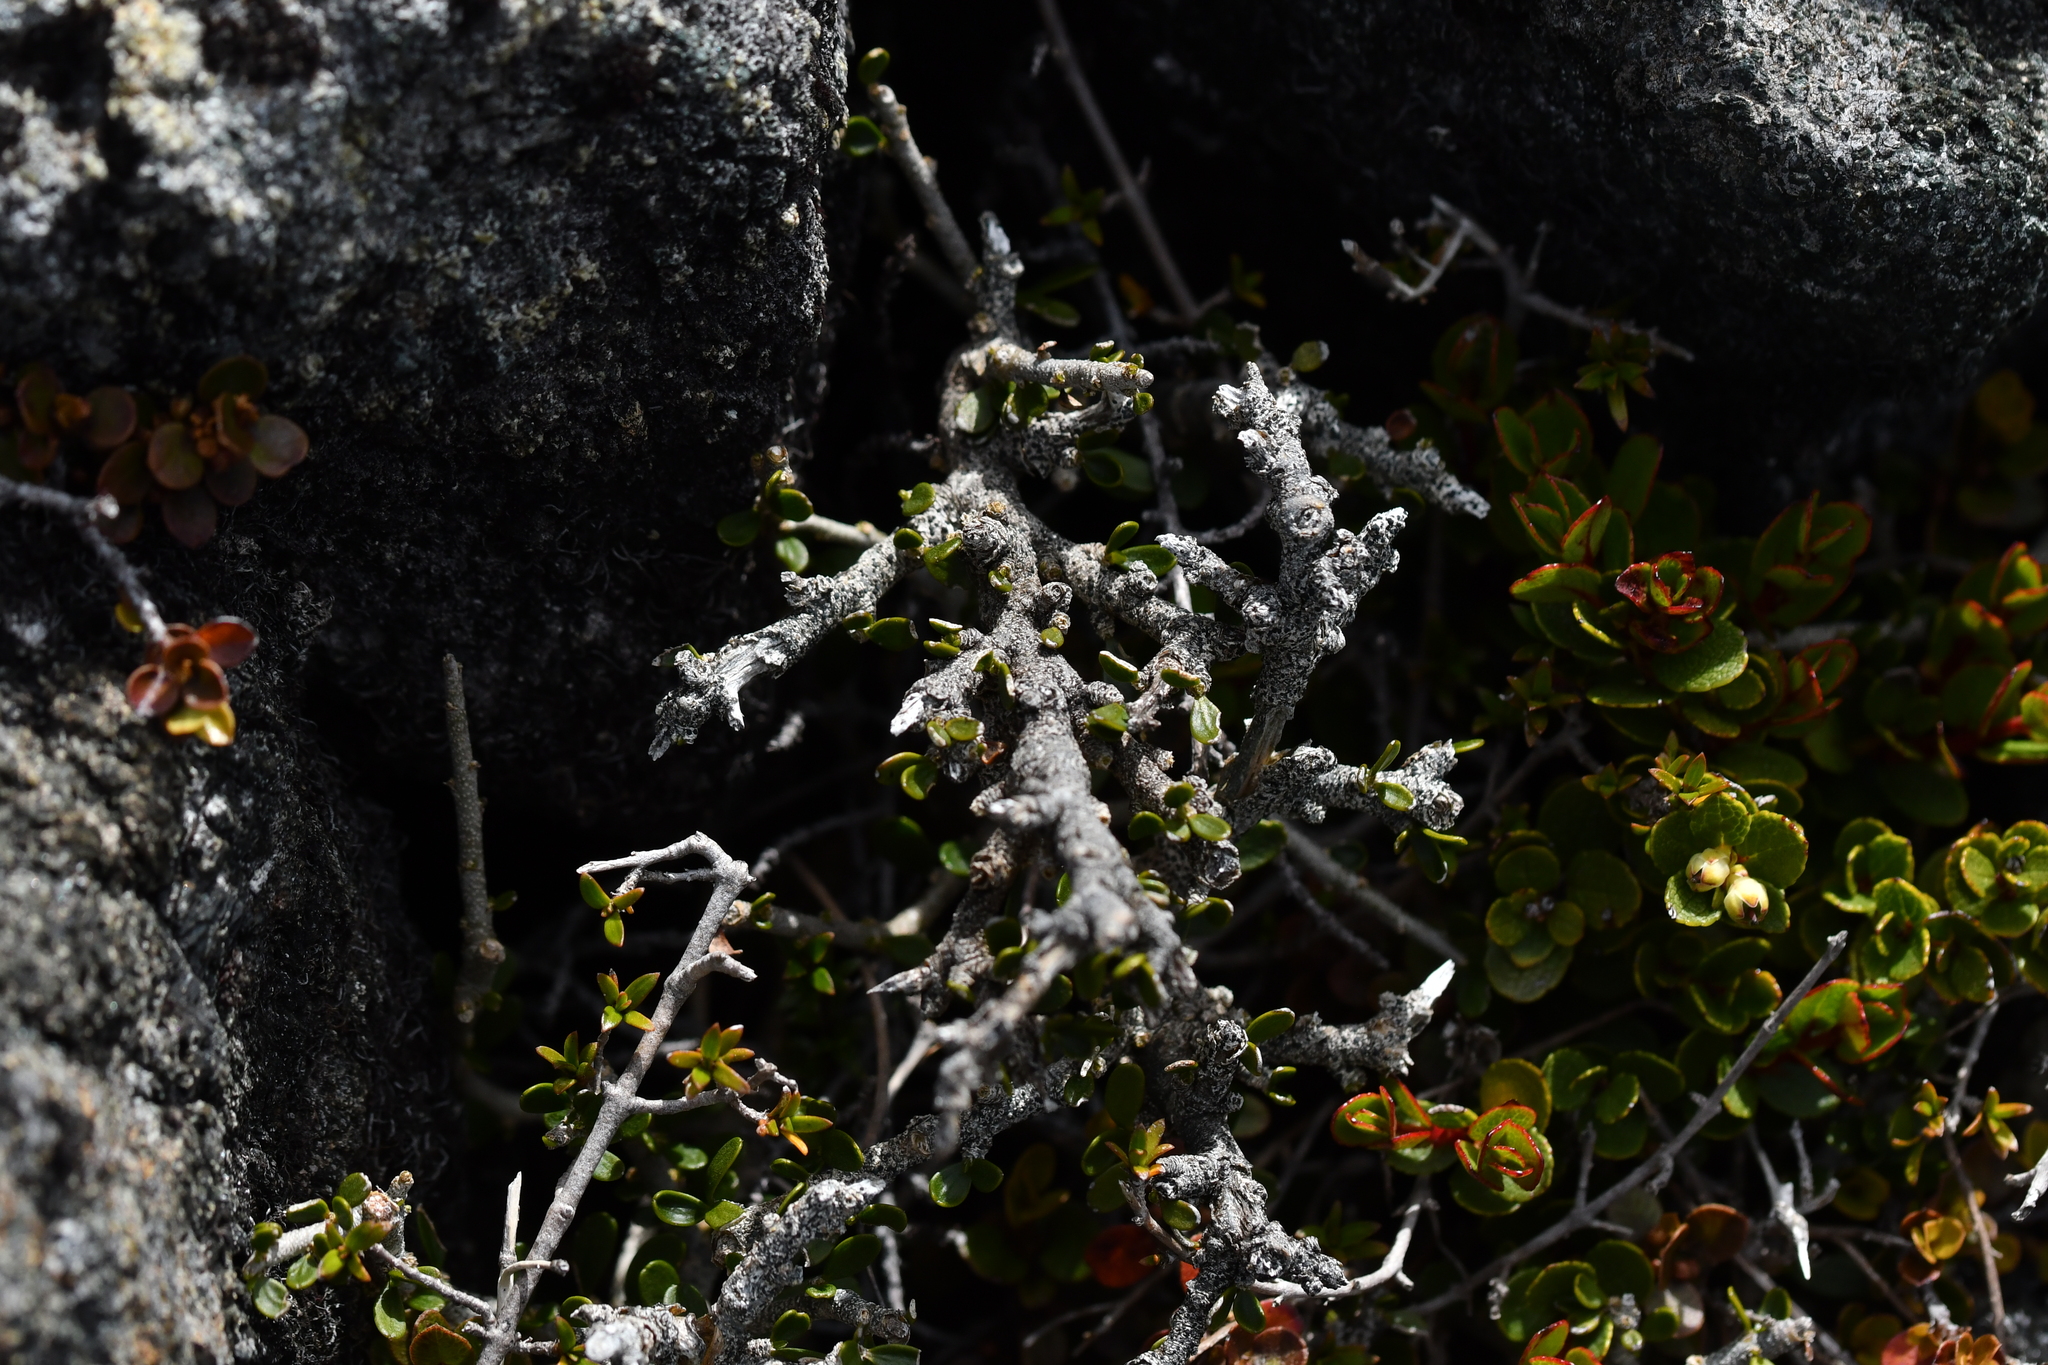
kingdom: Plantae
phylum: Tracheophyta
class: Magnoliopsida
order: Malpighiales
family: Violaceae
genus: Melicytus
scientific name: Melicytus alpinus
